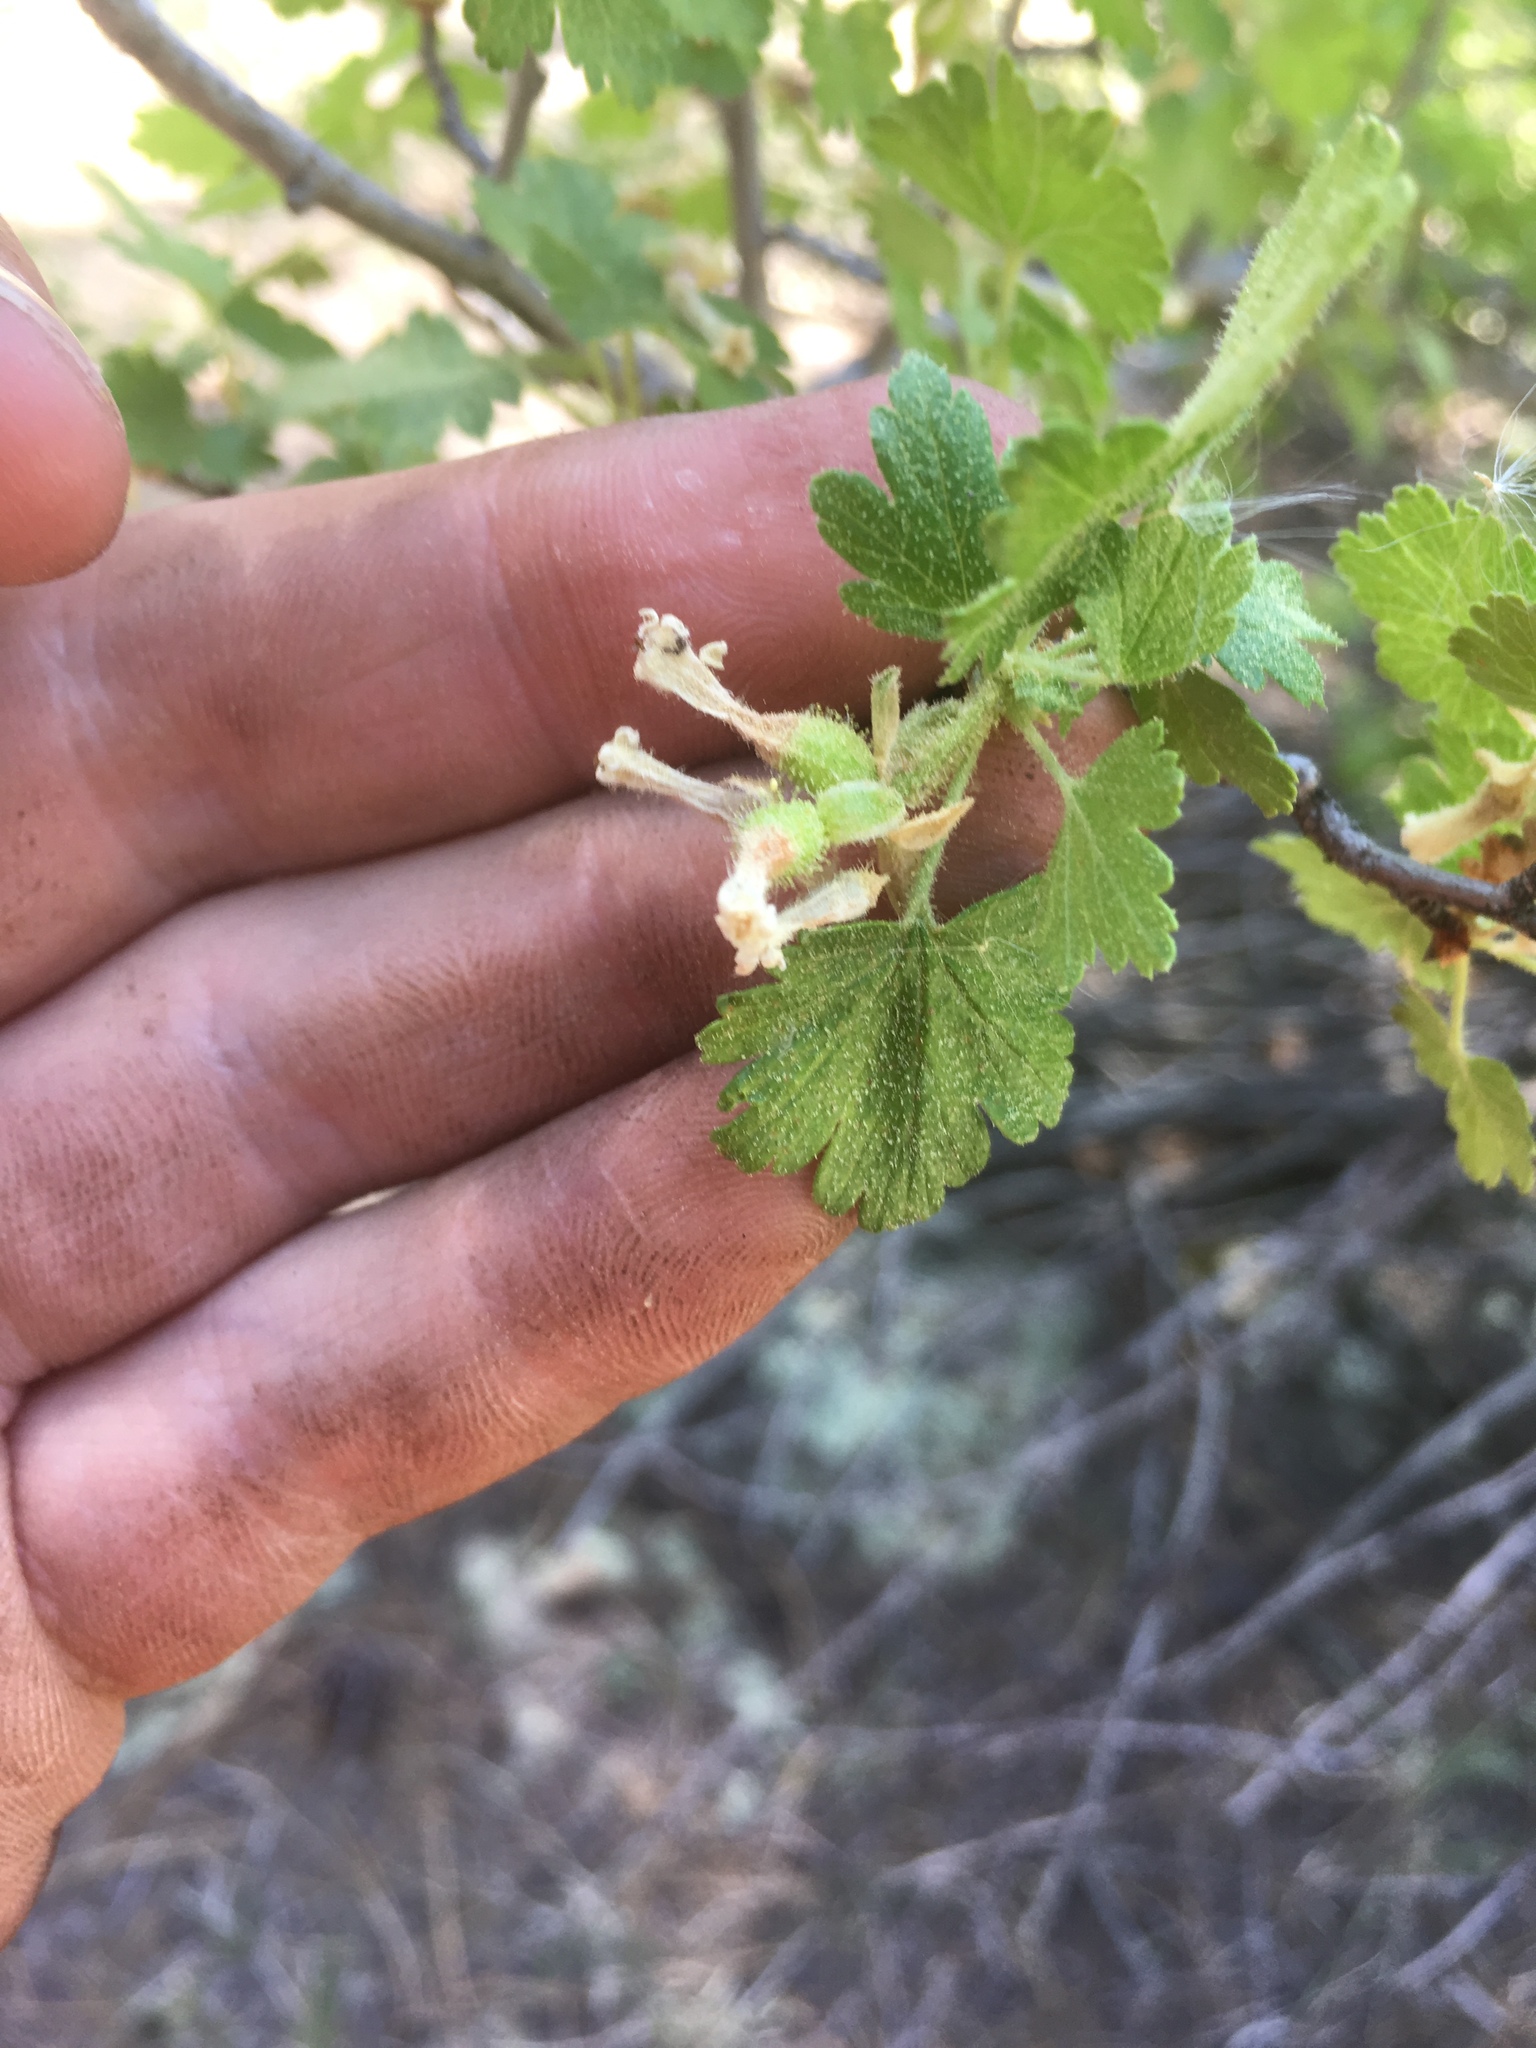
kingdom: Plantae
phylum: Tracheophyta
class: Magnoliopsida
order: Saxifragales
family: Grossulariaceae
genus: Ribes
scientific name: Ribes cereum
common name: Wax currant
